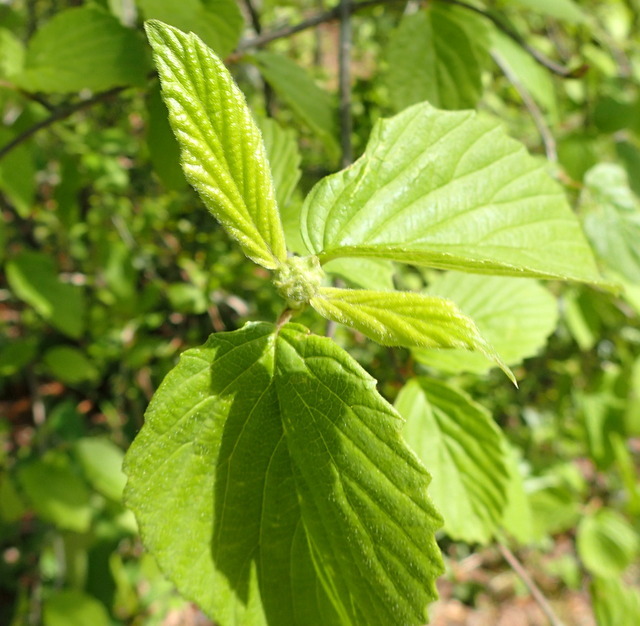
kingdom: Plantae
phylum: Tracheophyta
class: Magnoliopsida
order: Dipsacales
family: Viburnaceae
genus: Viburnum
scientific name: Viburnum scabrellum
